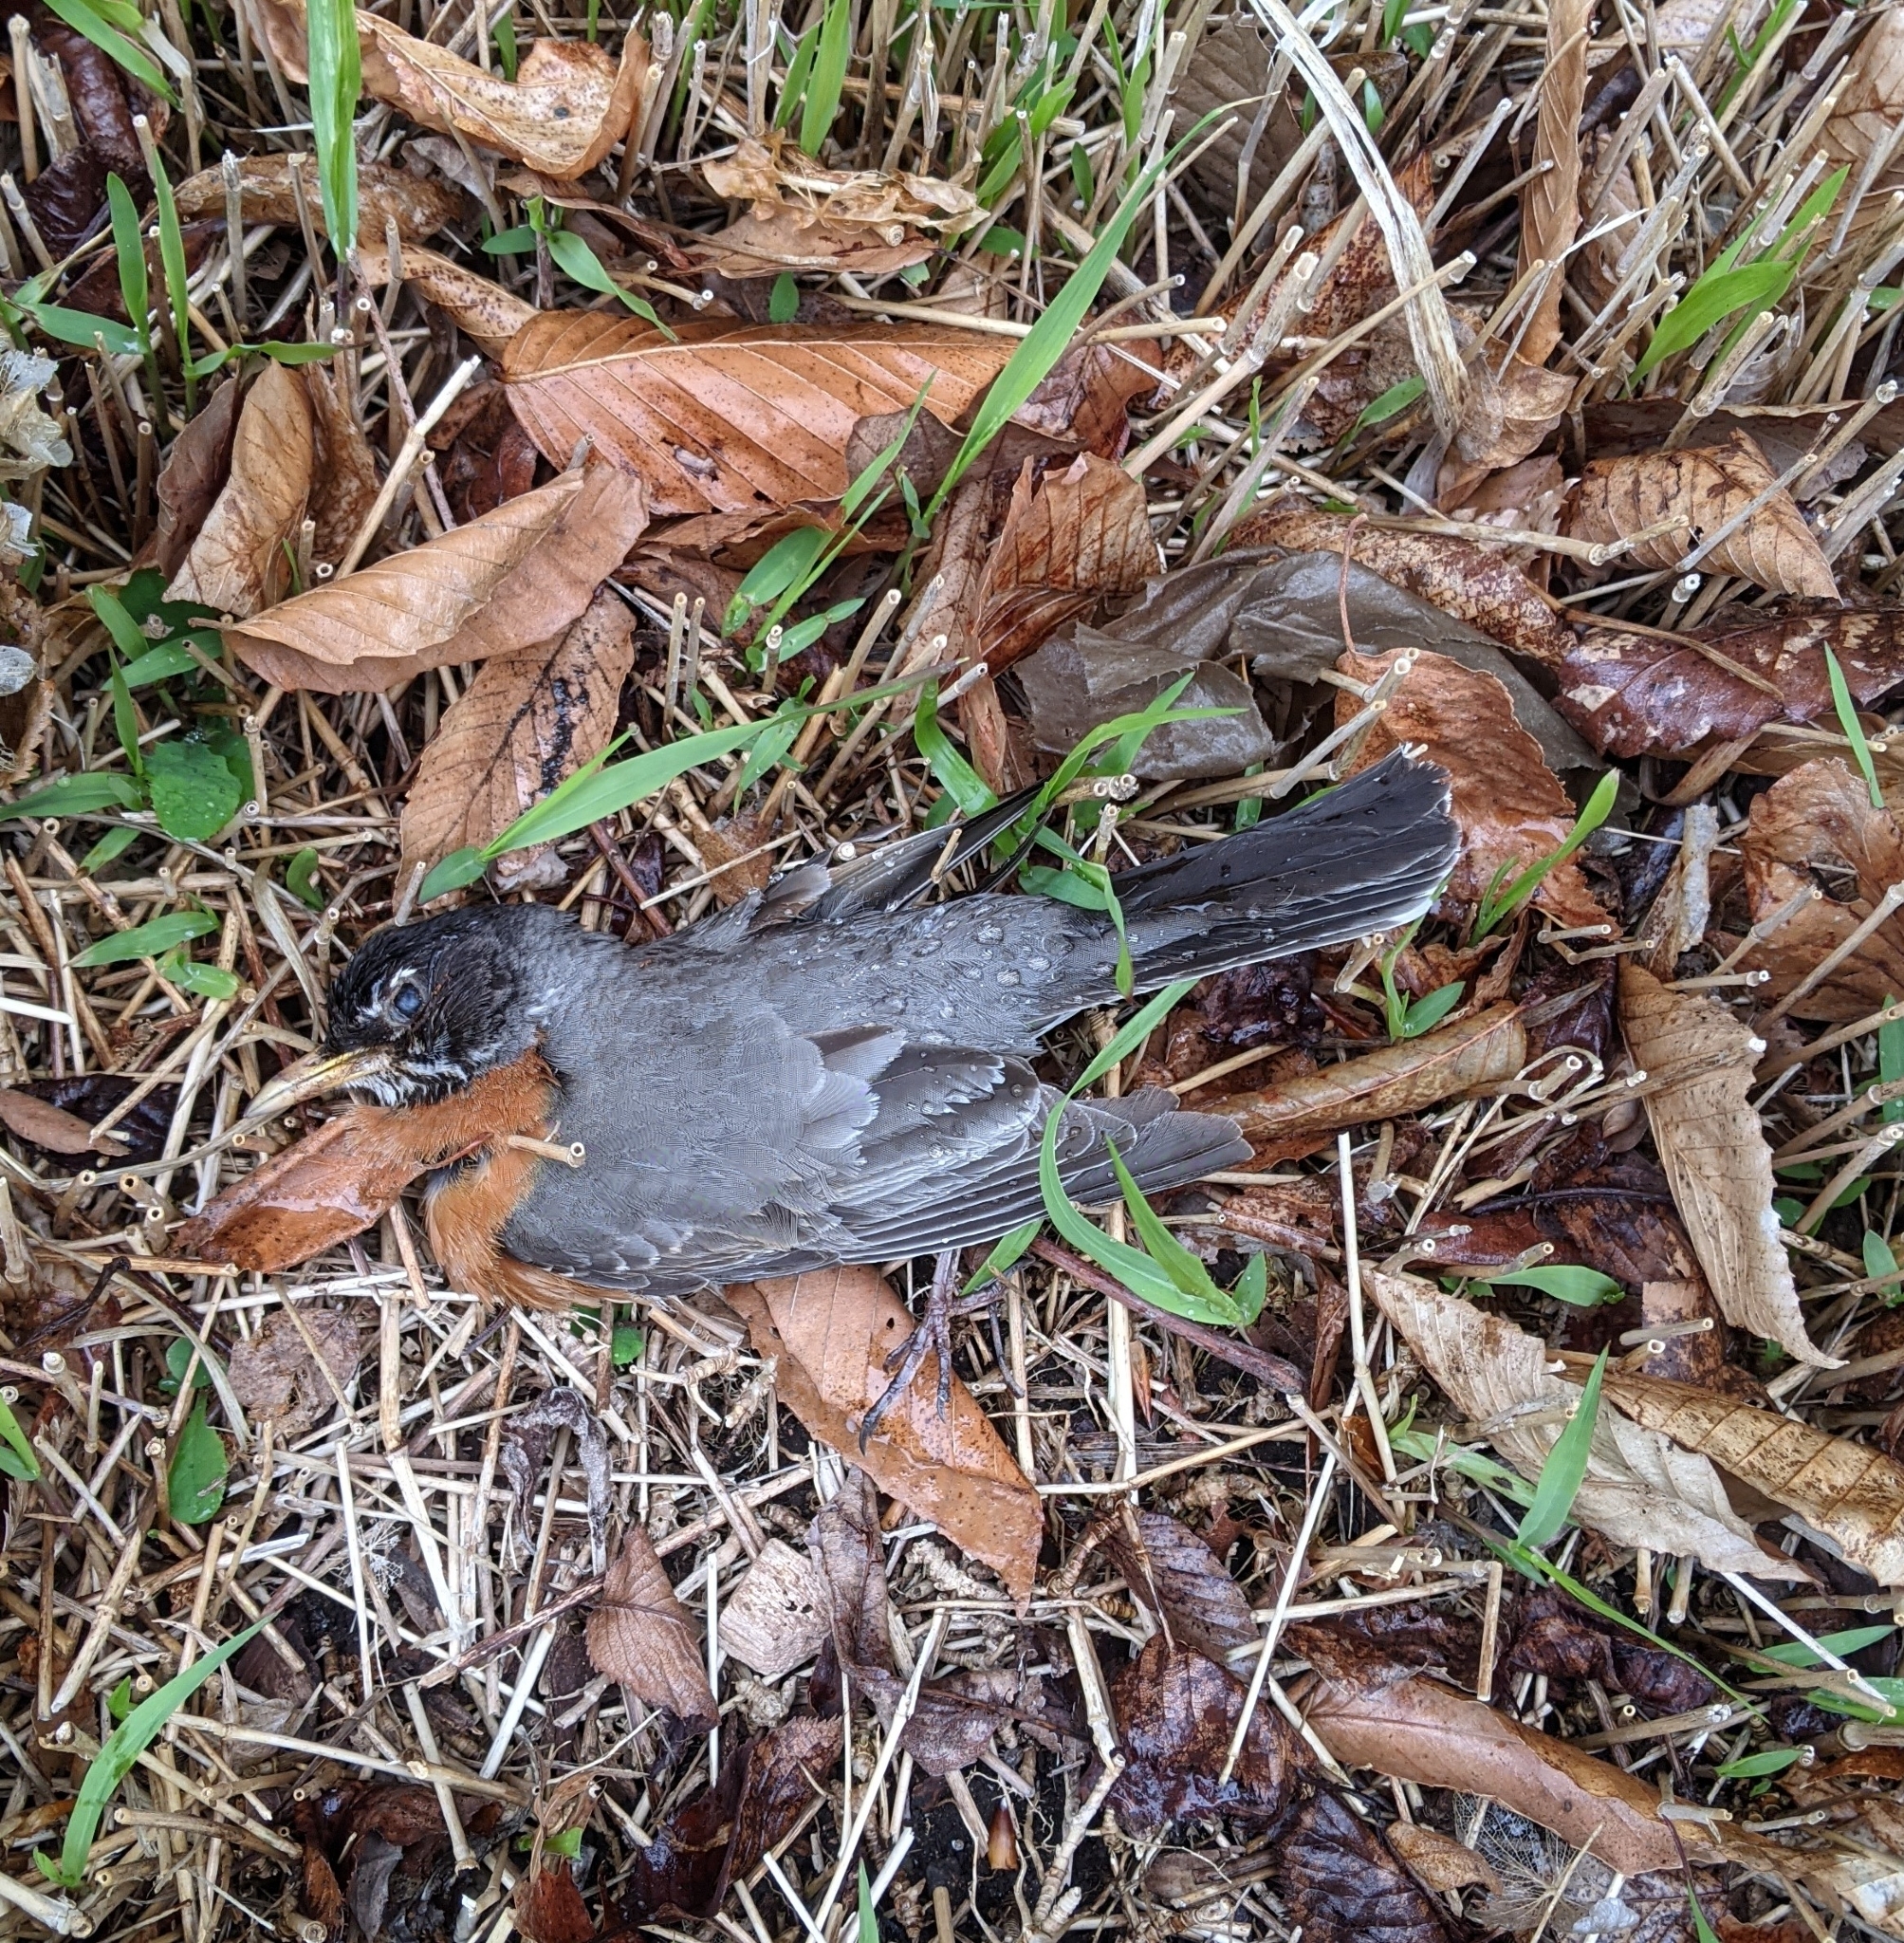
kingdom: Animalia
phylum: Chordata
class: Aves
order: Passeriformes
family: Turdidae
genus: Turdus
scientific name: Turdus migratorius
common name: American robin
